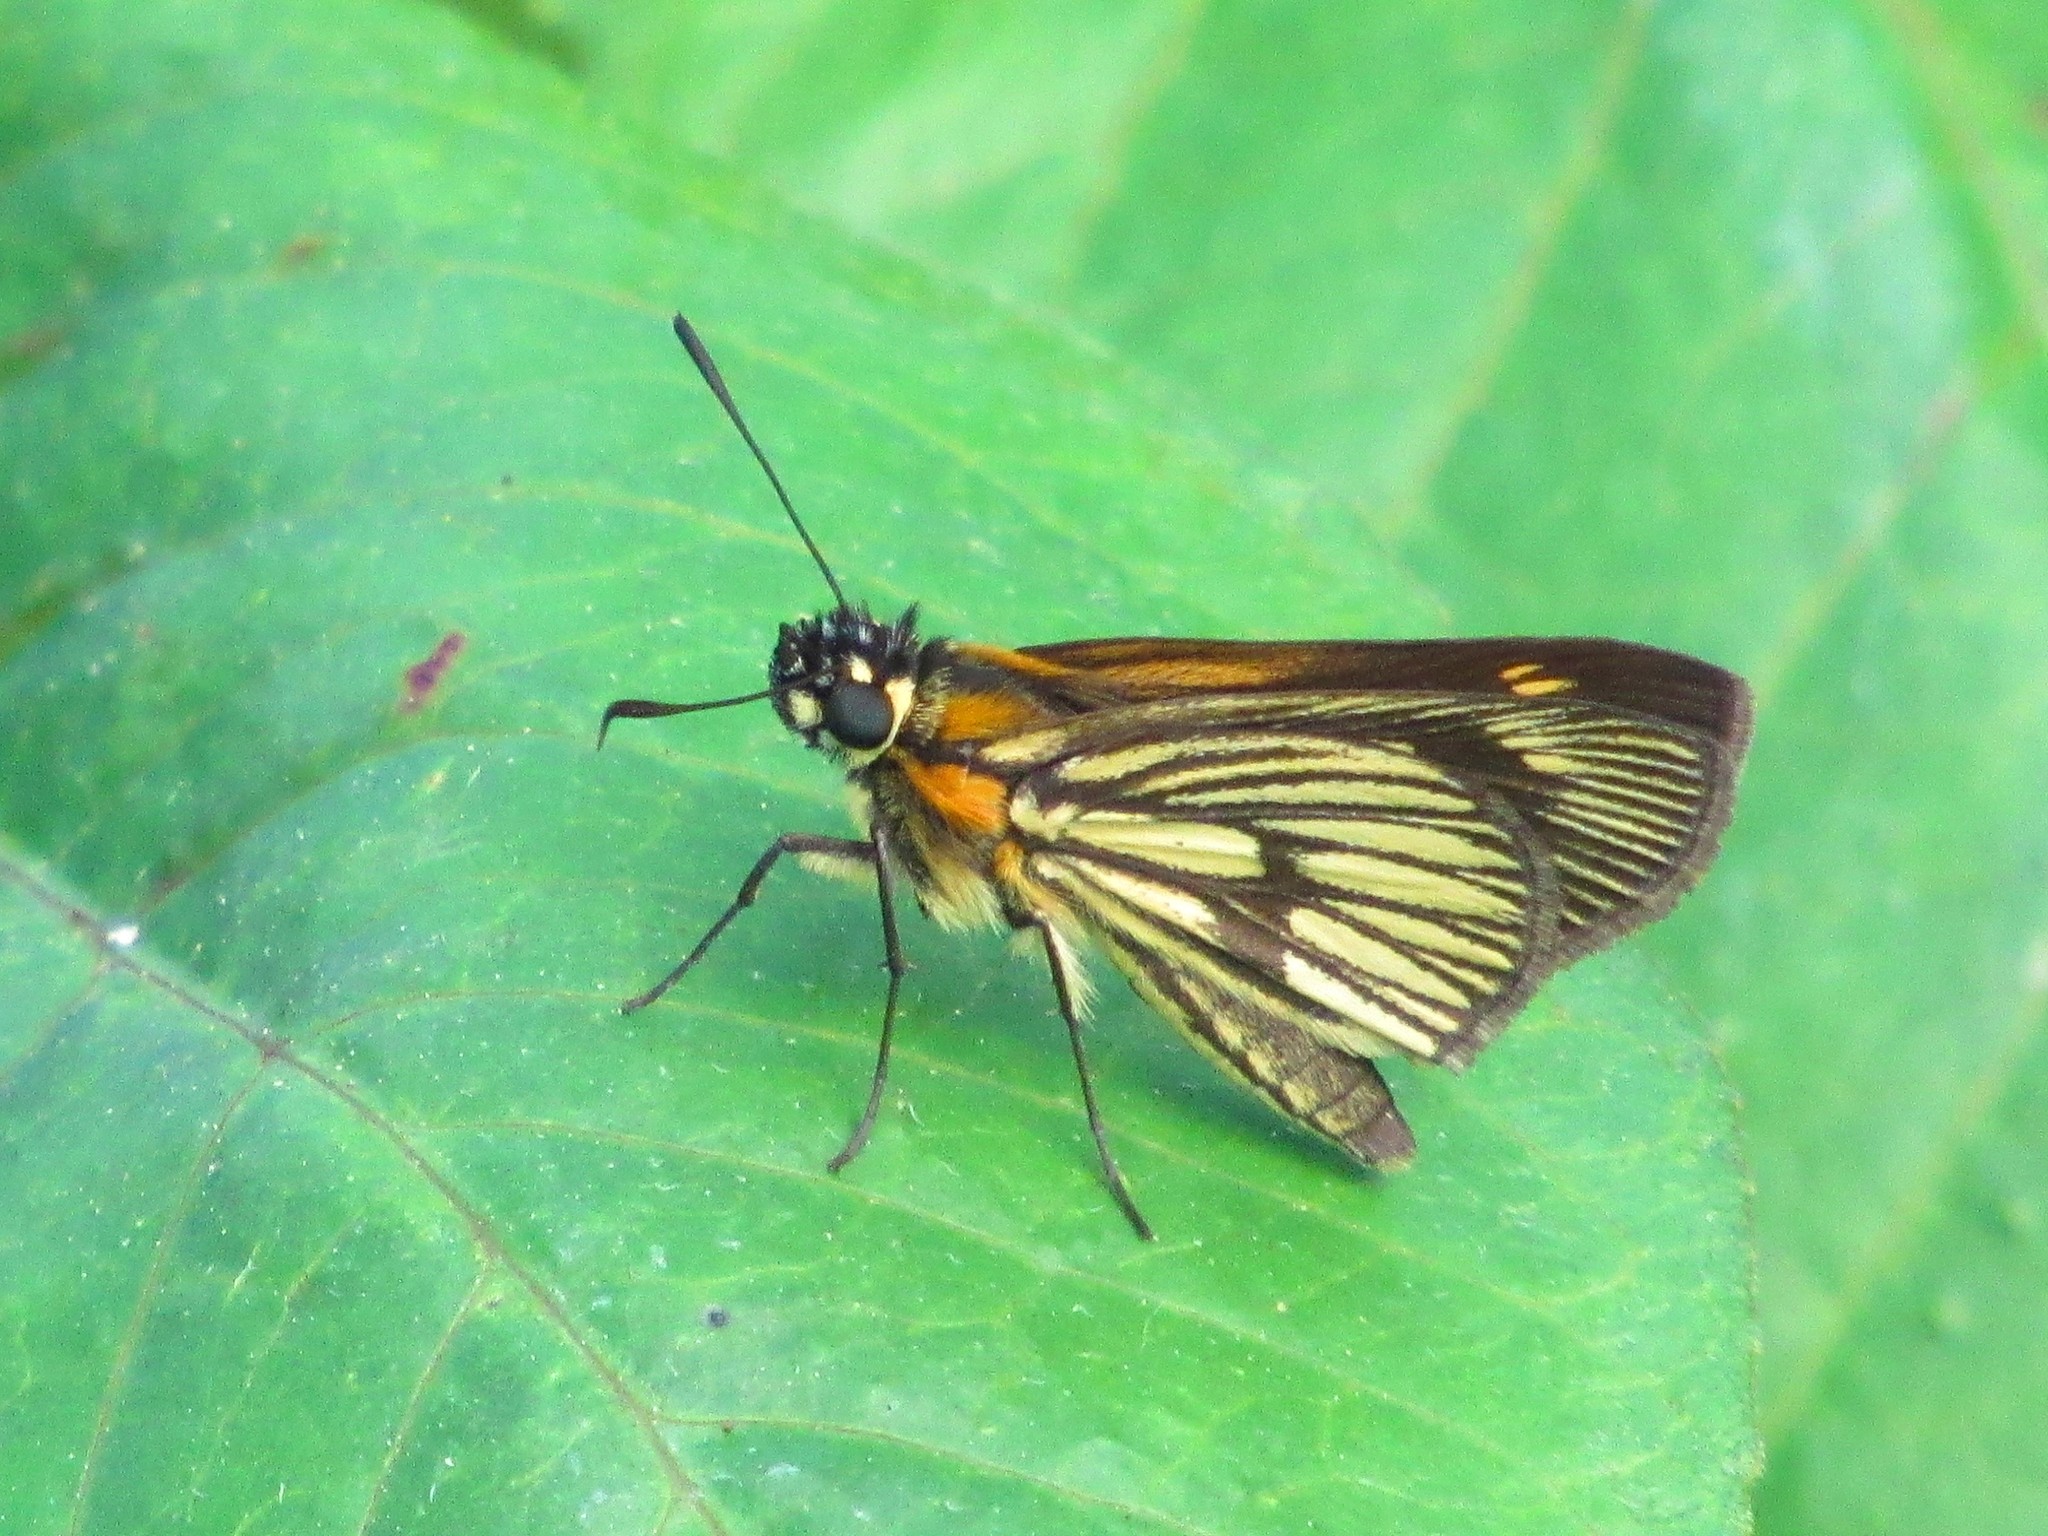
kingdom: Animalia
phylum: Arthropoda
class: Insecta
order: Lepidoptera
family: Hesperiidae
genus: Vehilius
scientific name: Vehilius clavicula
